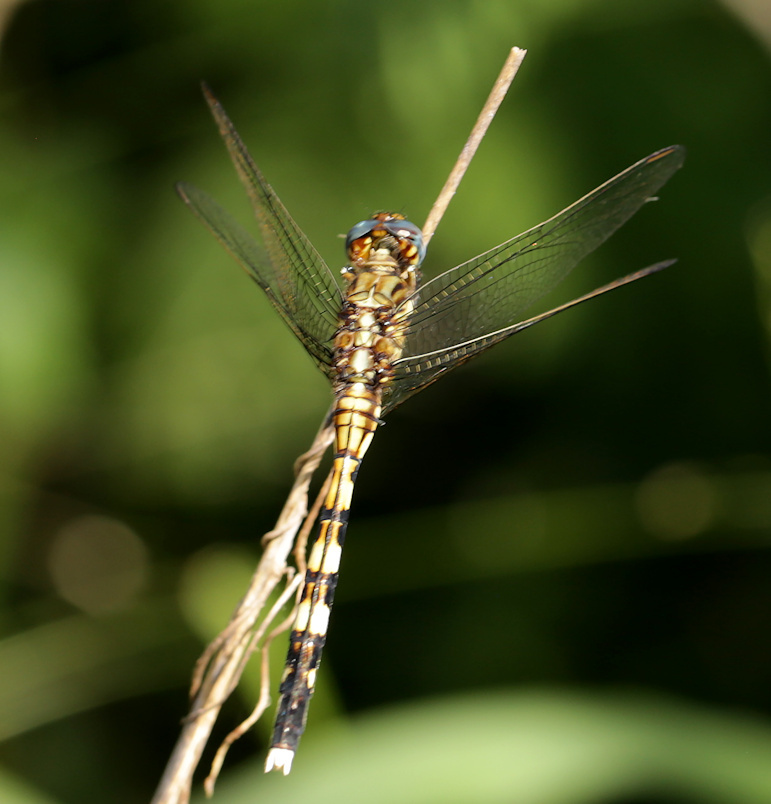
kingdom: Animalia
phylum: Arthropoda
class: Insecta
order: Odonata
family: Libellulidae
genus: Orthetrum
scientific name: Orthetrum stemmale
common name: Bold skimmer
